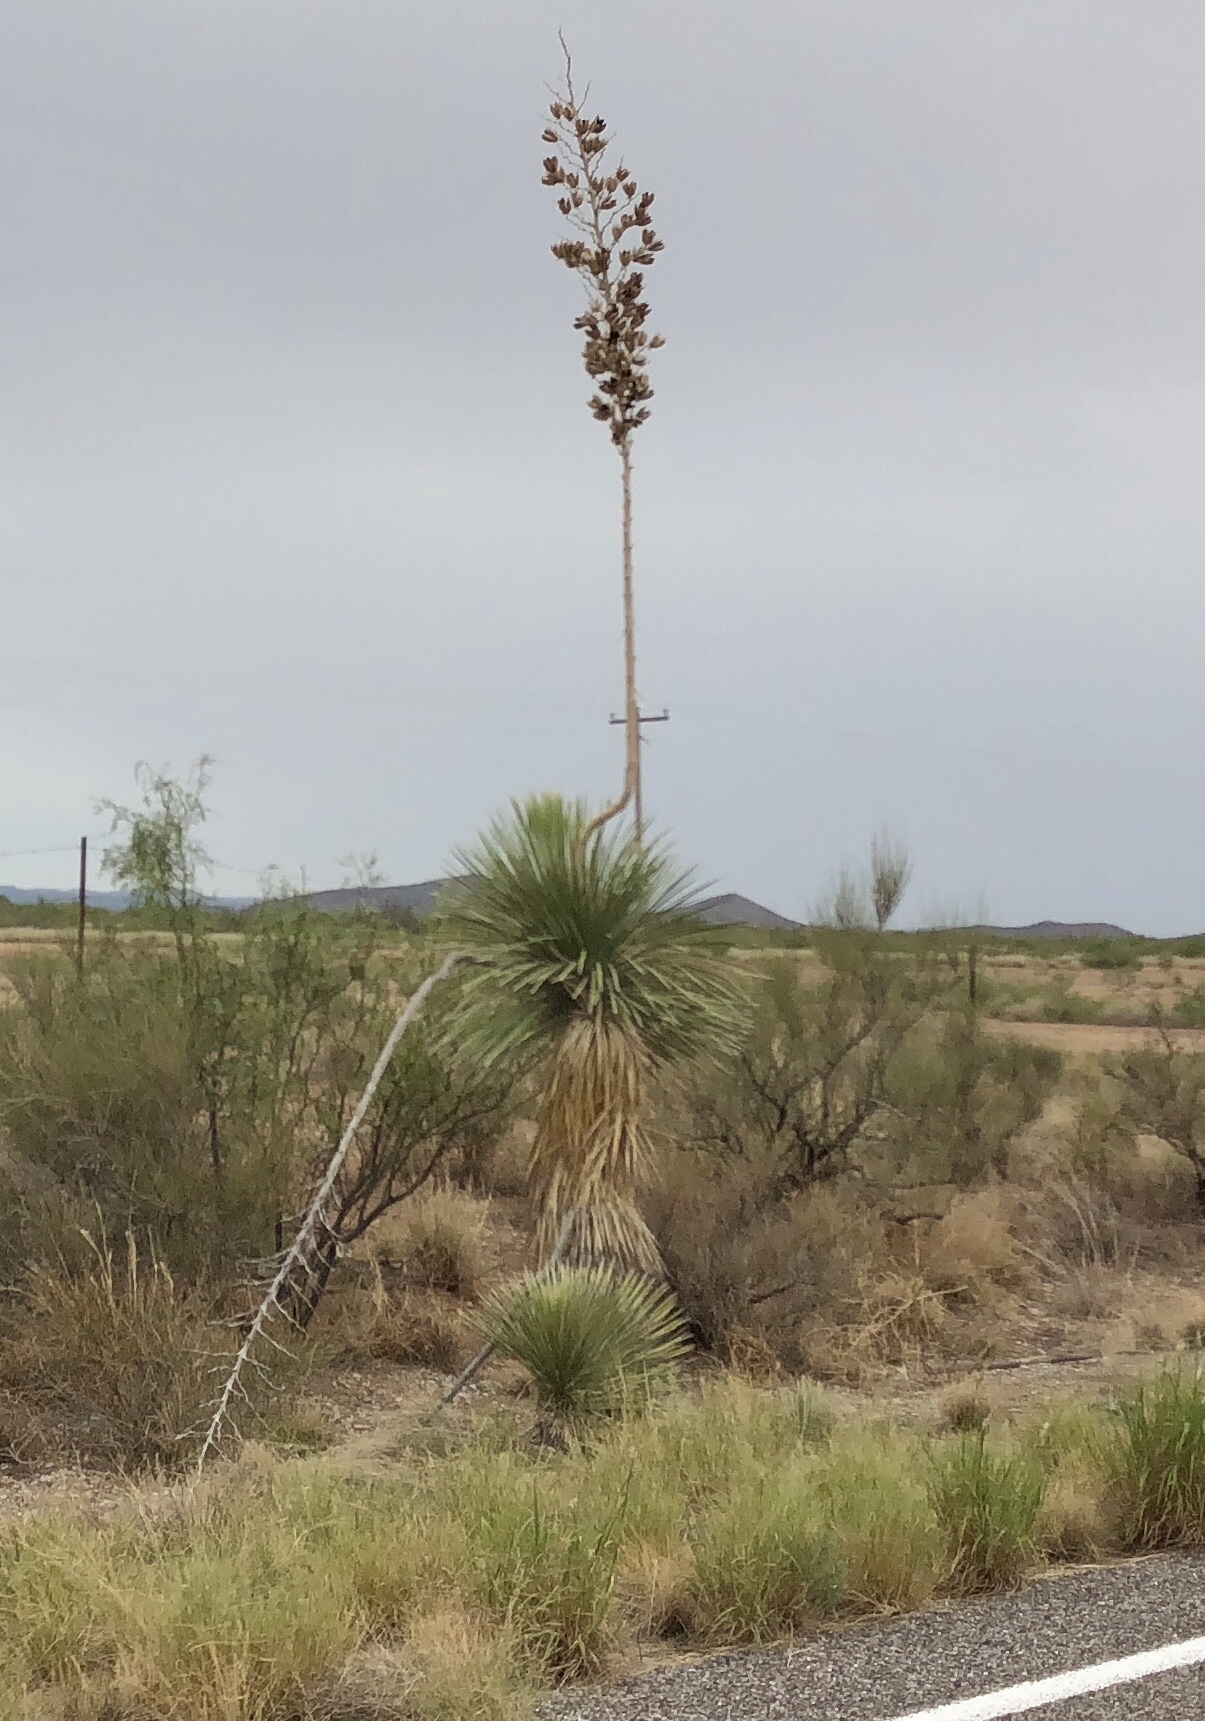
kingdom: Plantae
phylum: Tracheophyta
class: Liliopsida
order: Asparagales
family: Asparagaceae
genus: Yucca
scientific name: Yucca elata
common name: Palmella
